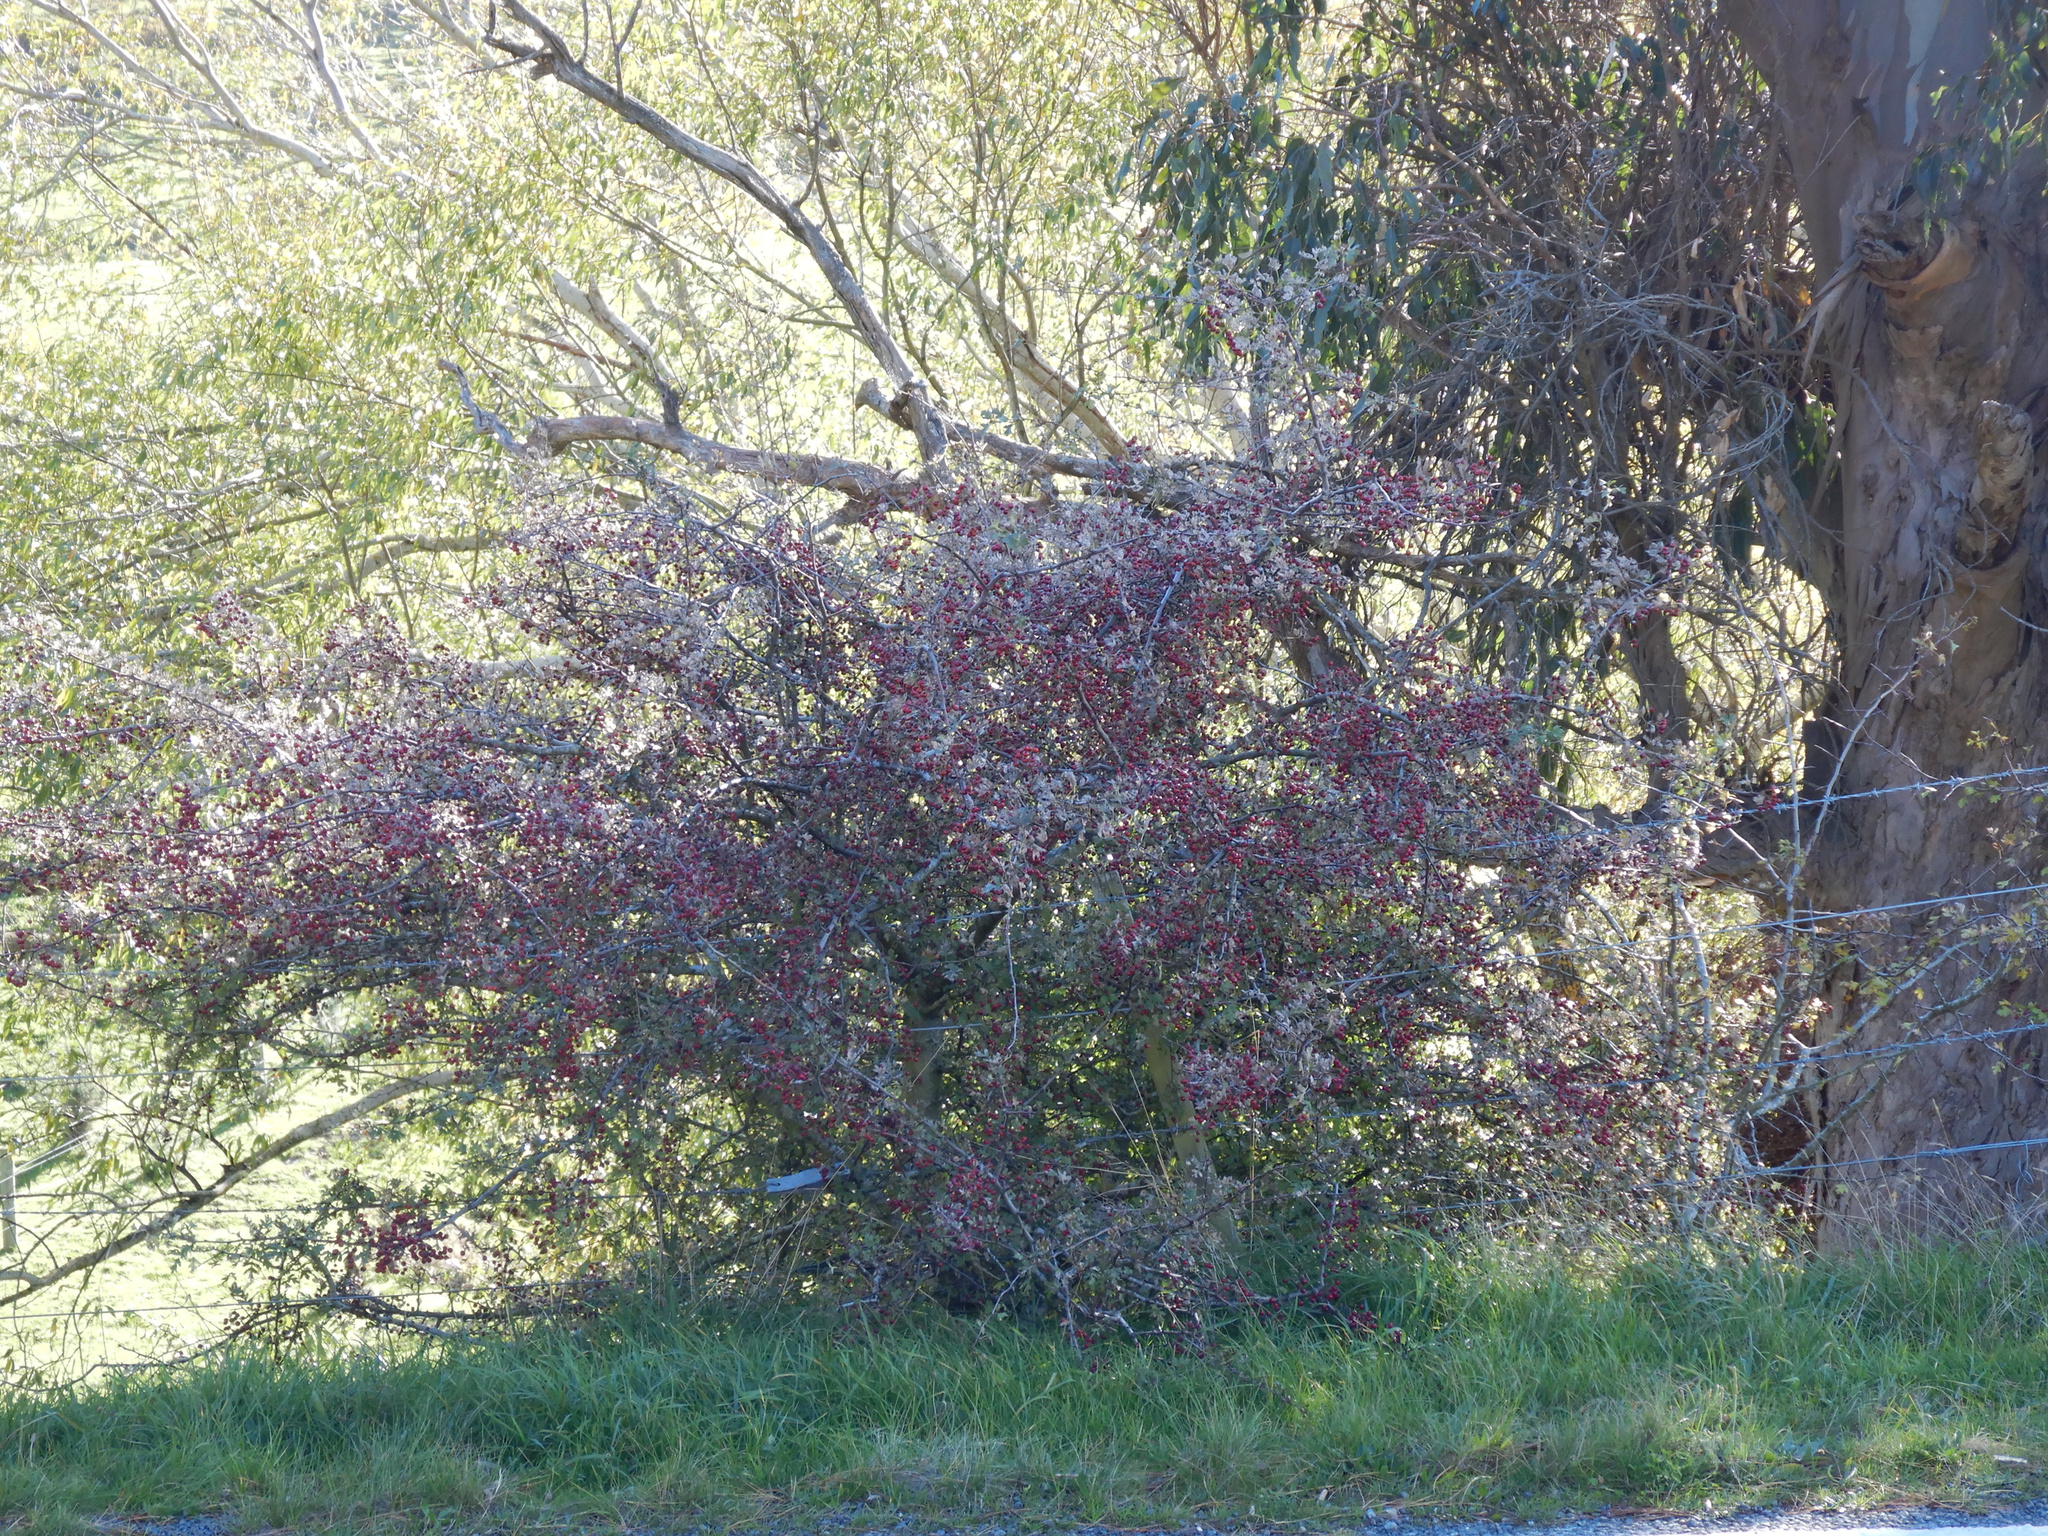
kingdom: Plantae
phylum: Tracheophyta
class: Magnoliopsida
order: Rosales
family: Rosaceae
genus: Crataegus
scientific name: Crataegus monogyna
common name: Hawthorn
